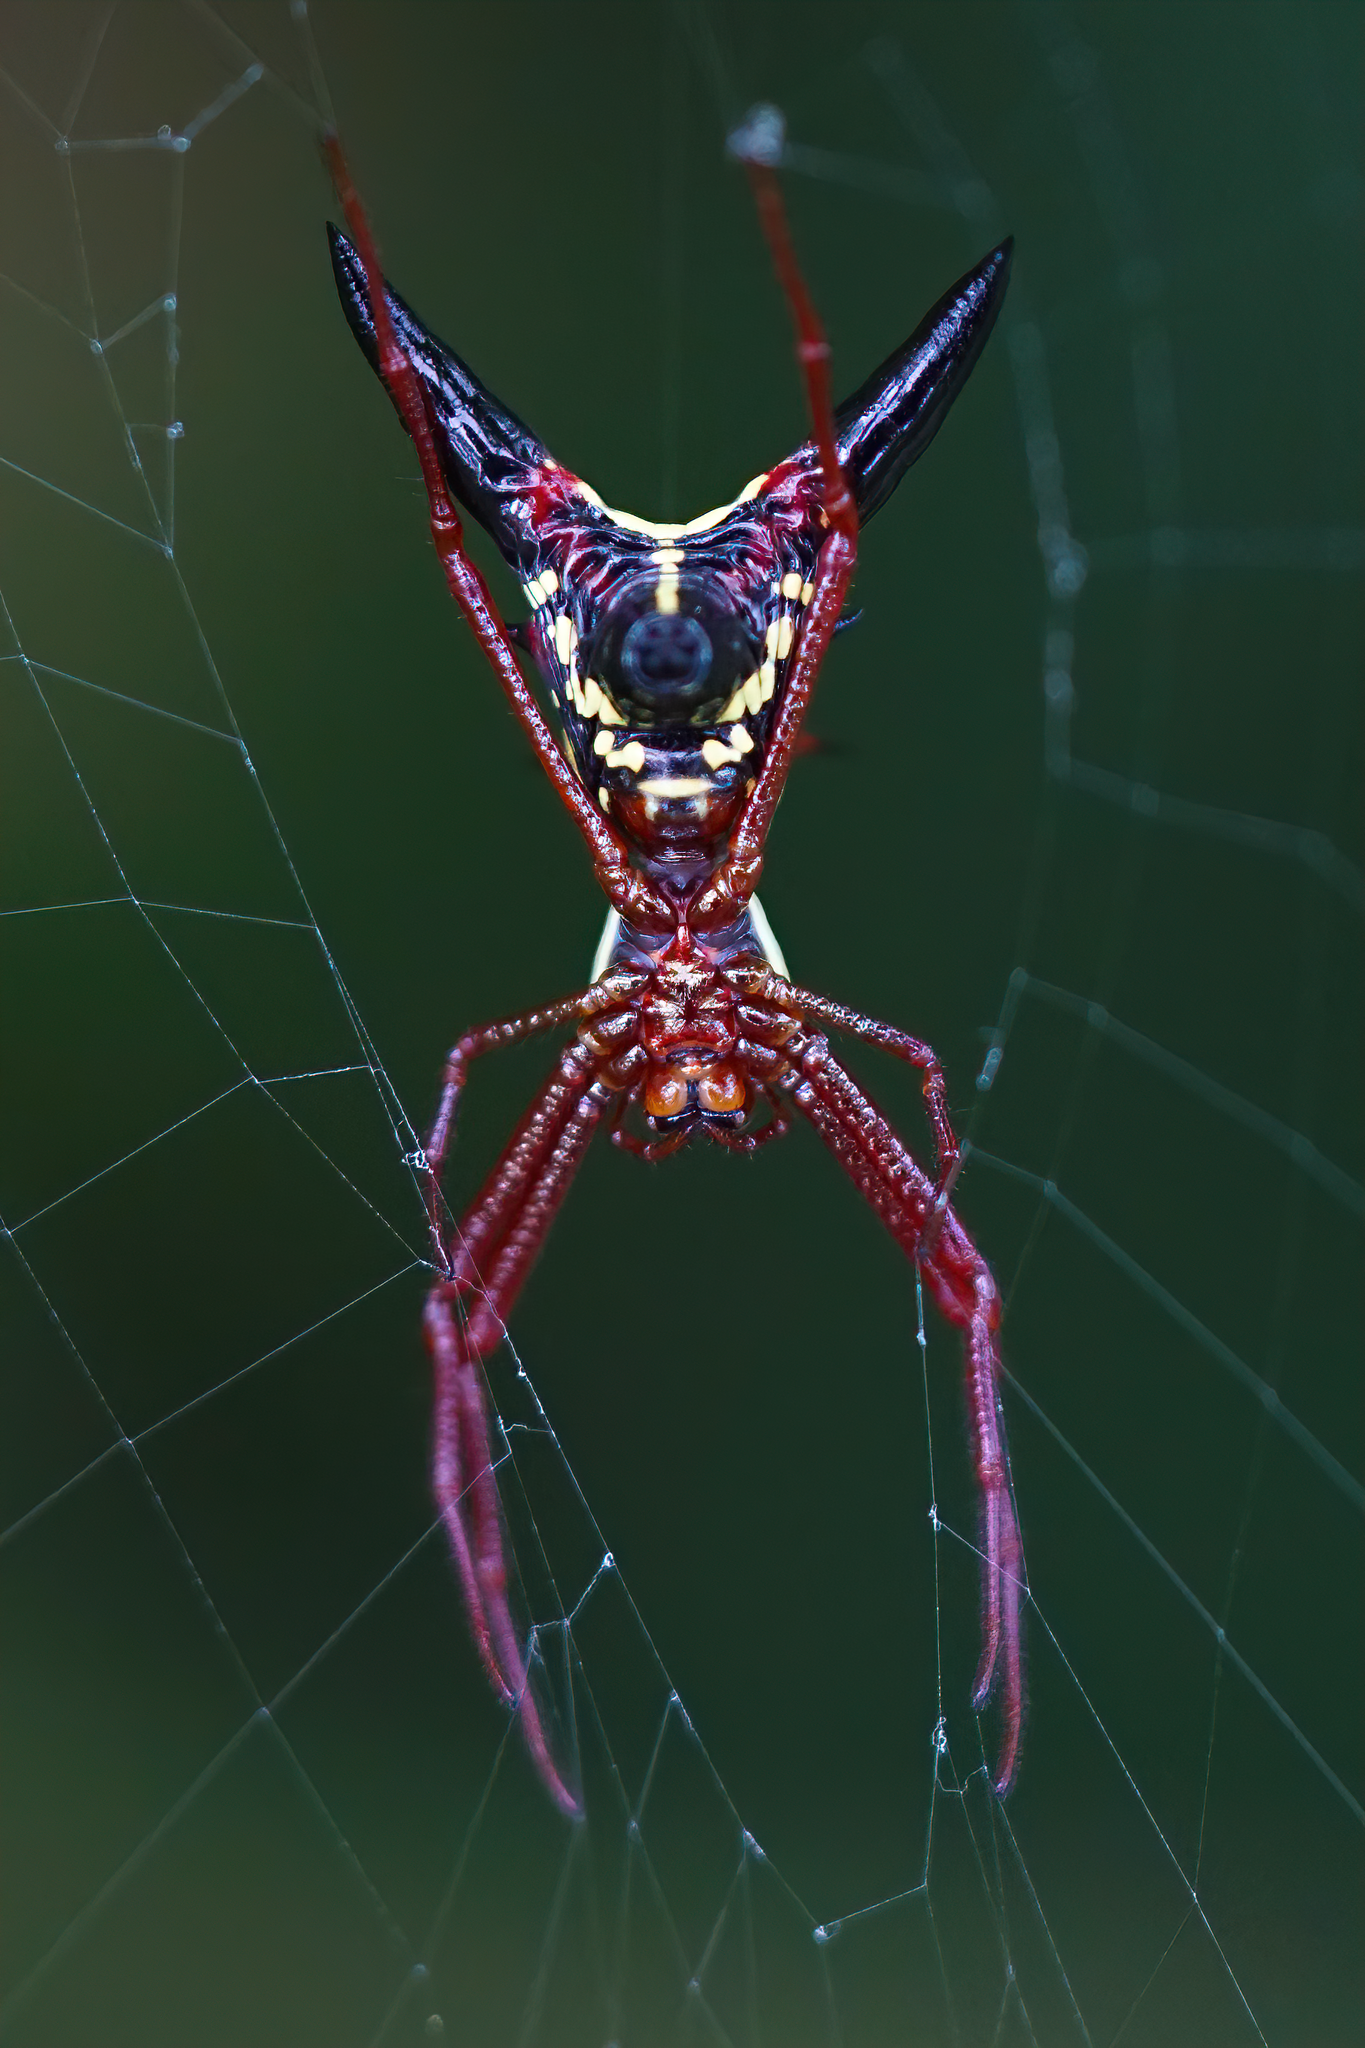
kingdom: Animalia
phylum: Arthropoda
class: Arachnida
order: Araneae
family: Araneidae
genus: Micrathena
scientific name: Micrathena sagittata
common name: Orb weavers
